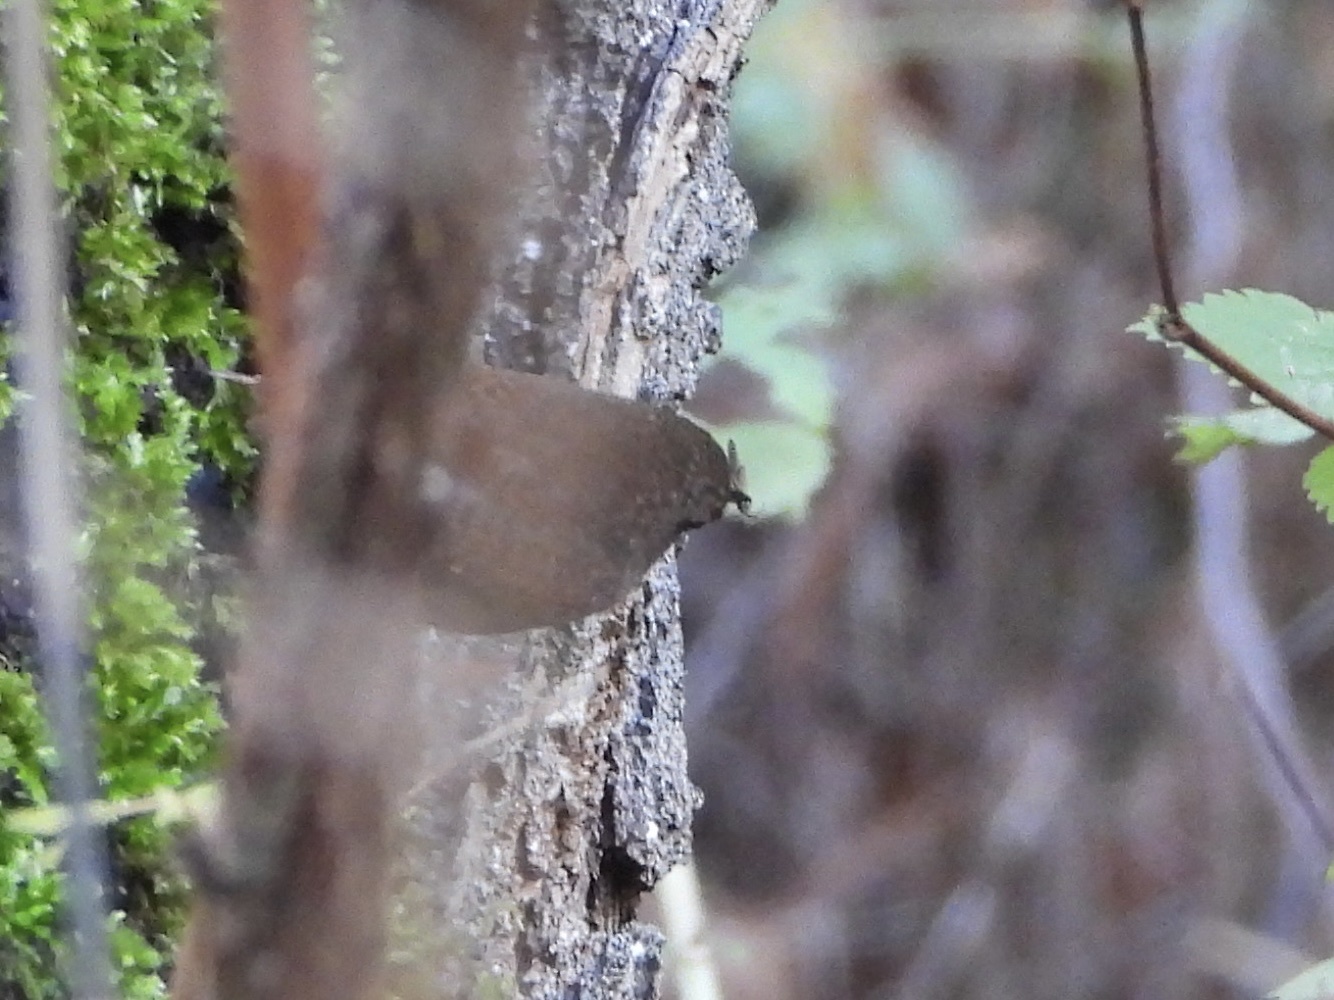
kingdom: Animalia
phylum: Chordata
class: Aves
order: Passeriformes
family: Troglodytidae
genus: Troglodytes
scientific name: Troglodytes pacificus
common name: Pacific wren
